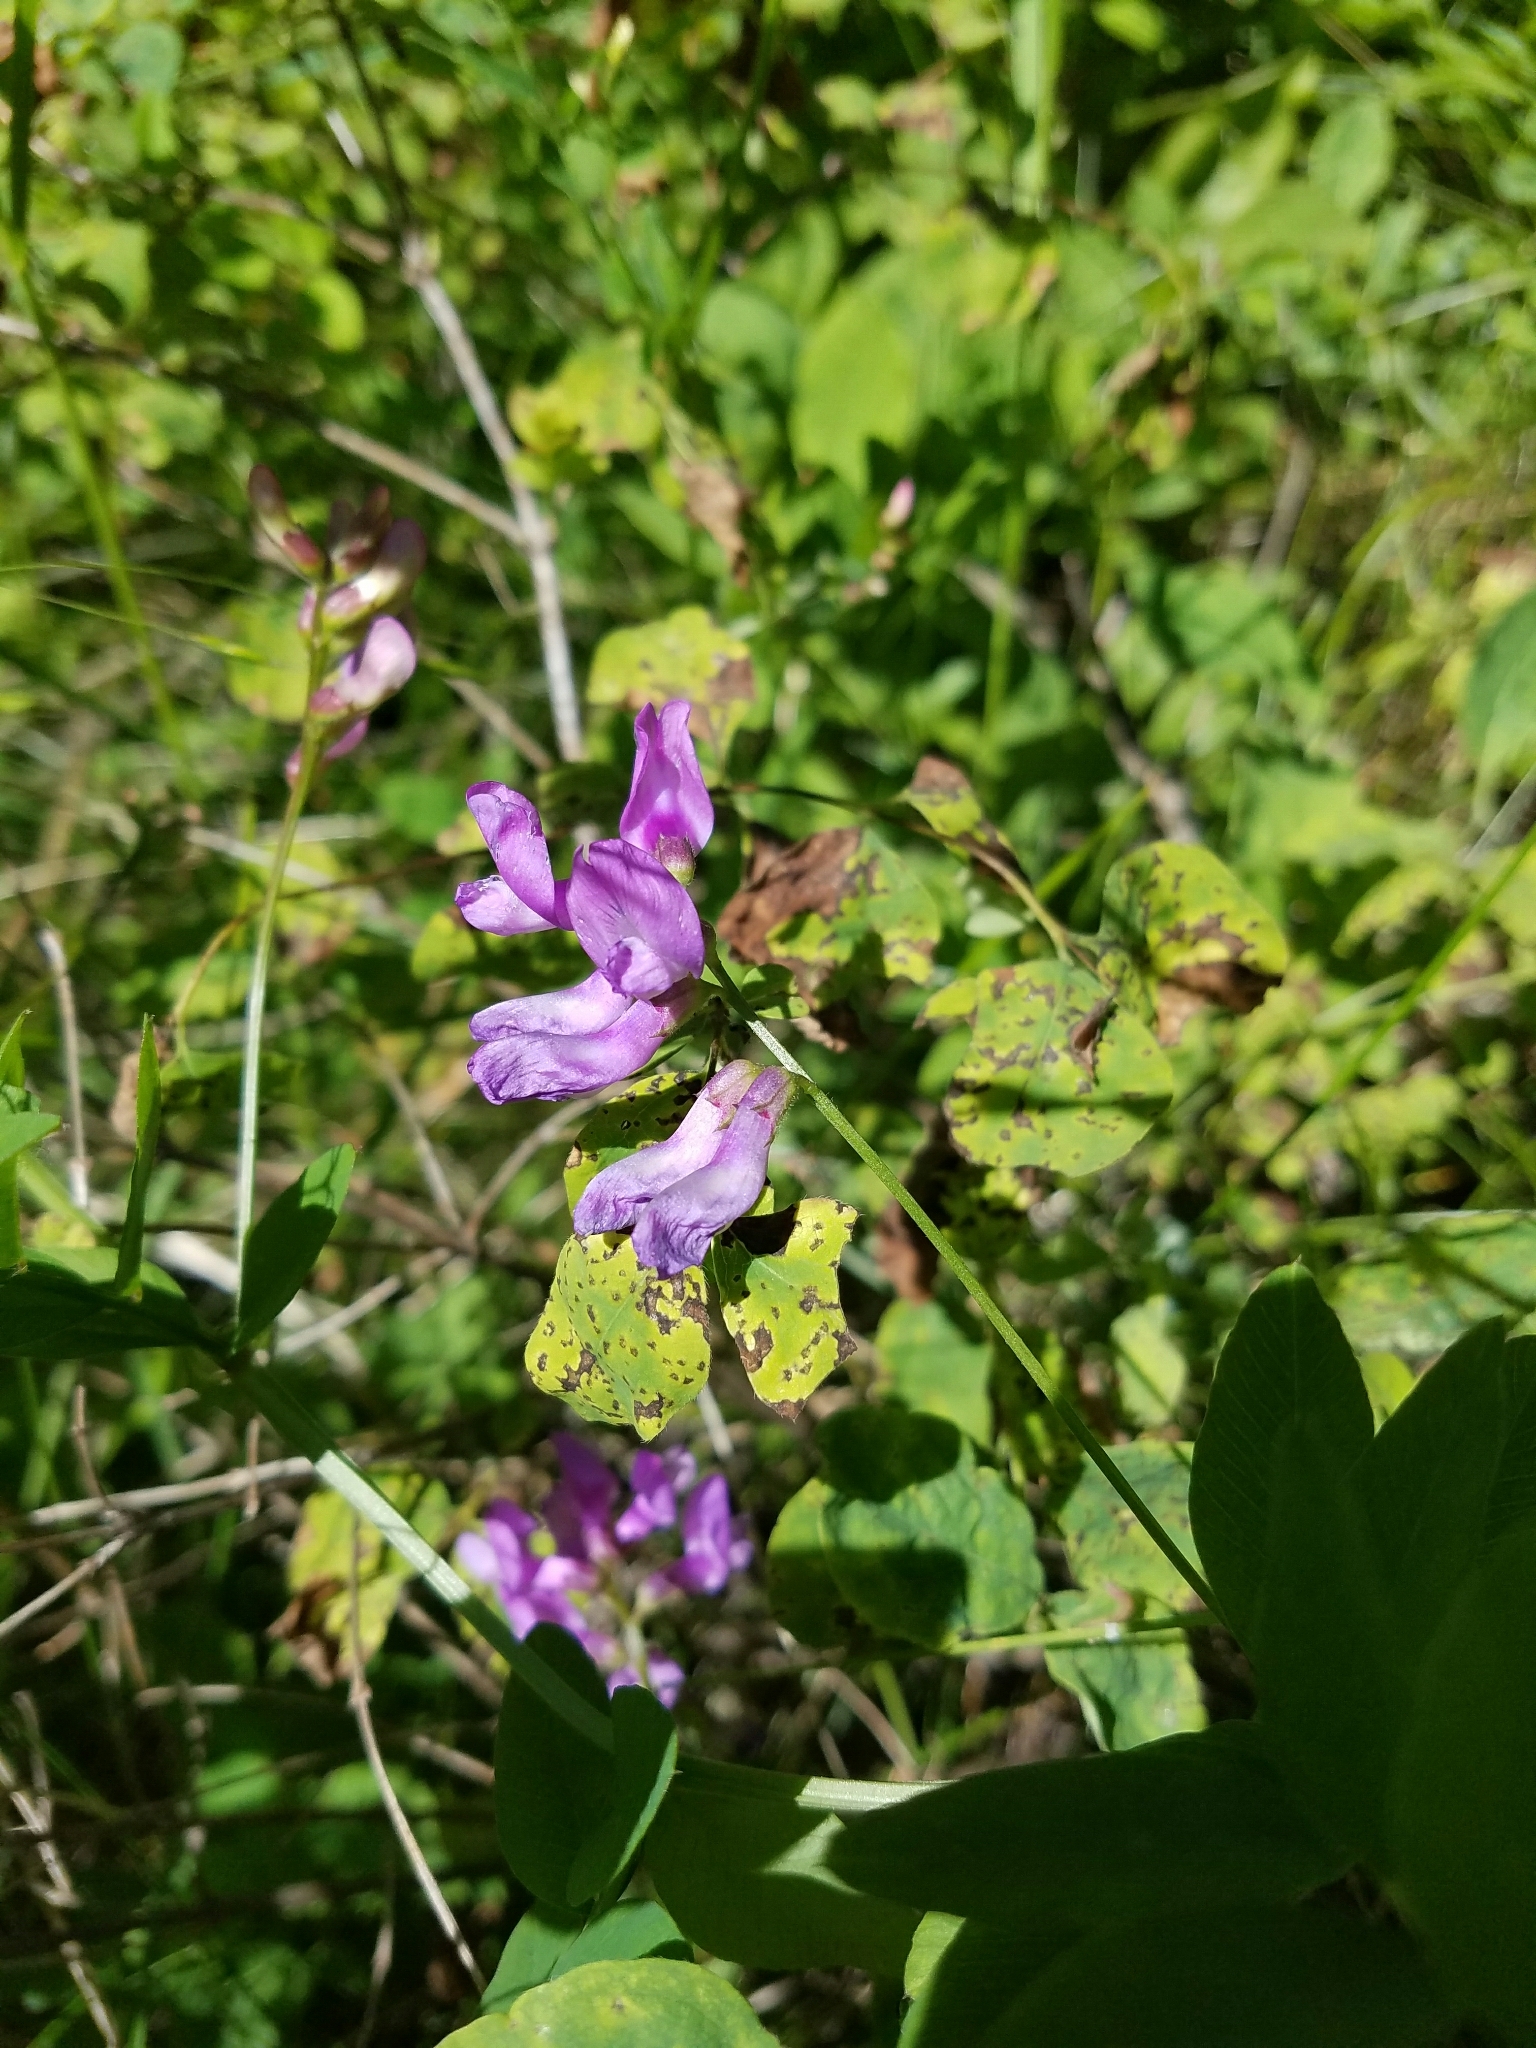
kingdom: Plantae
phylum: Tracheophyta
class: Magnoliopsida
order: Fabales
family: Fabaceae
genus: Vicia
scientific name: Vicia americana
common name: American vetch
